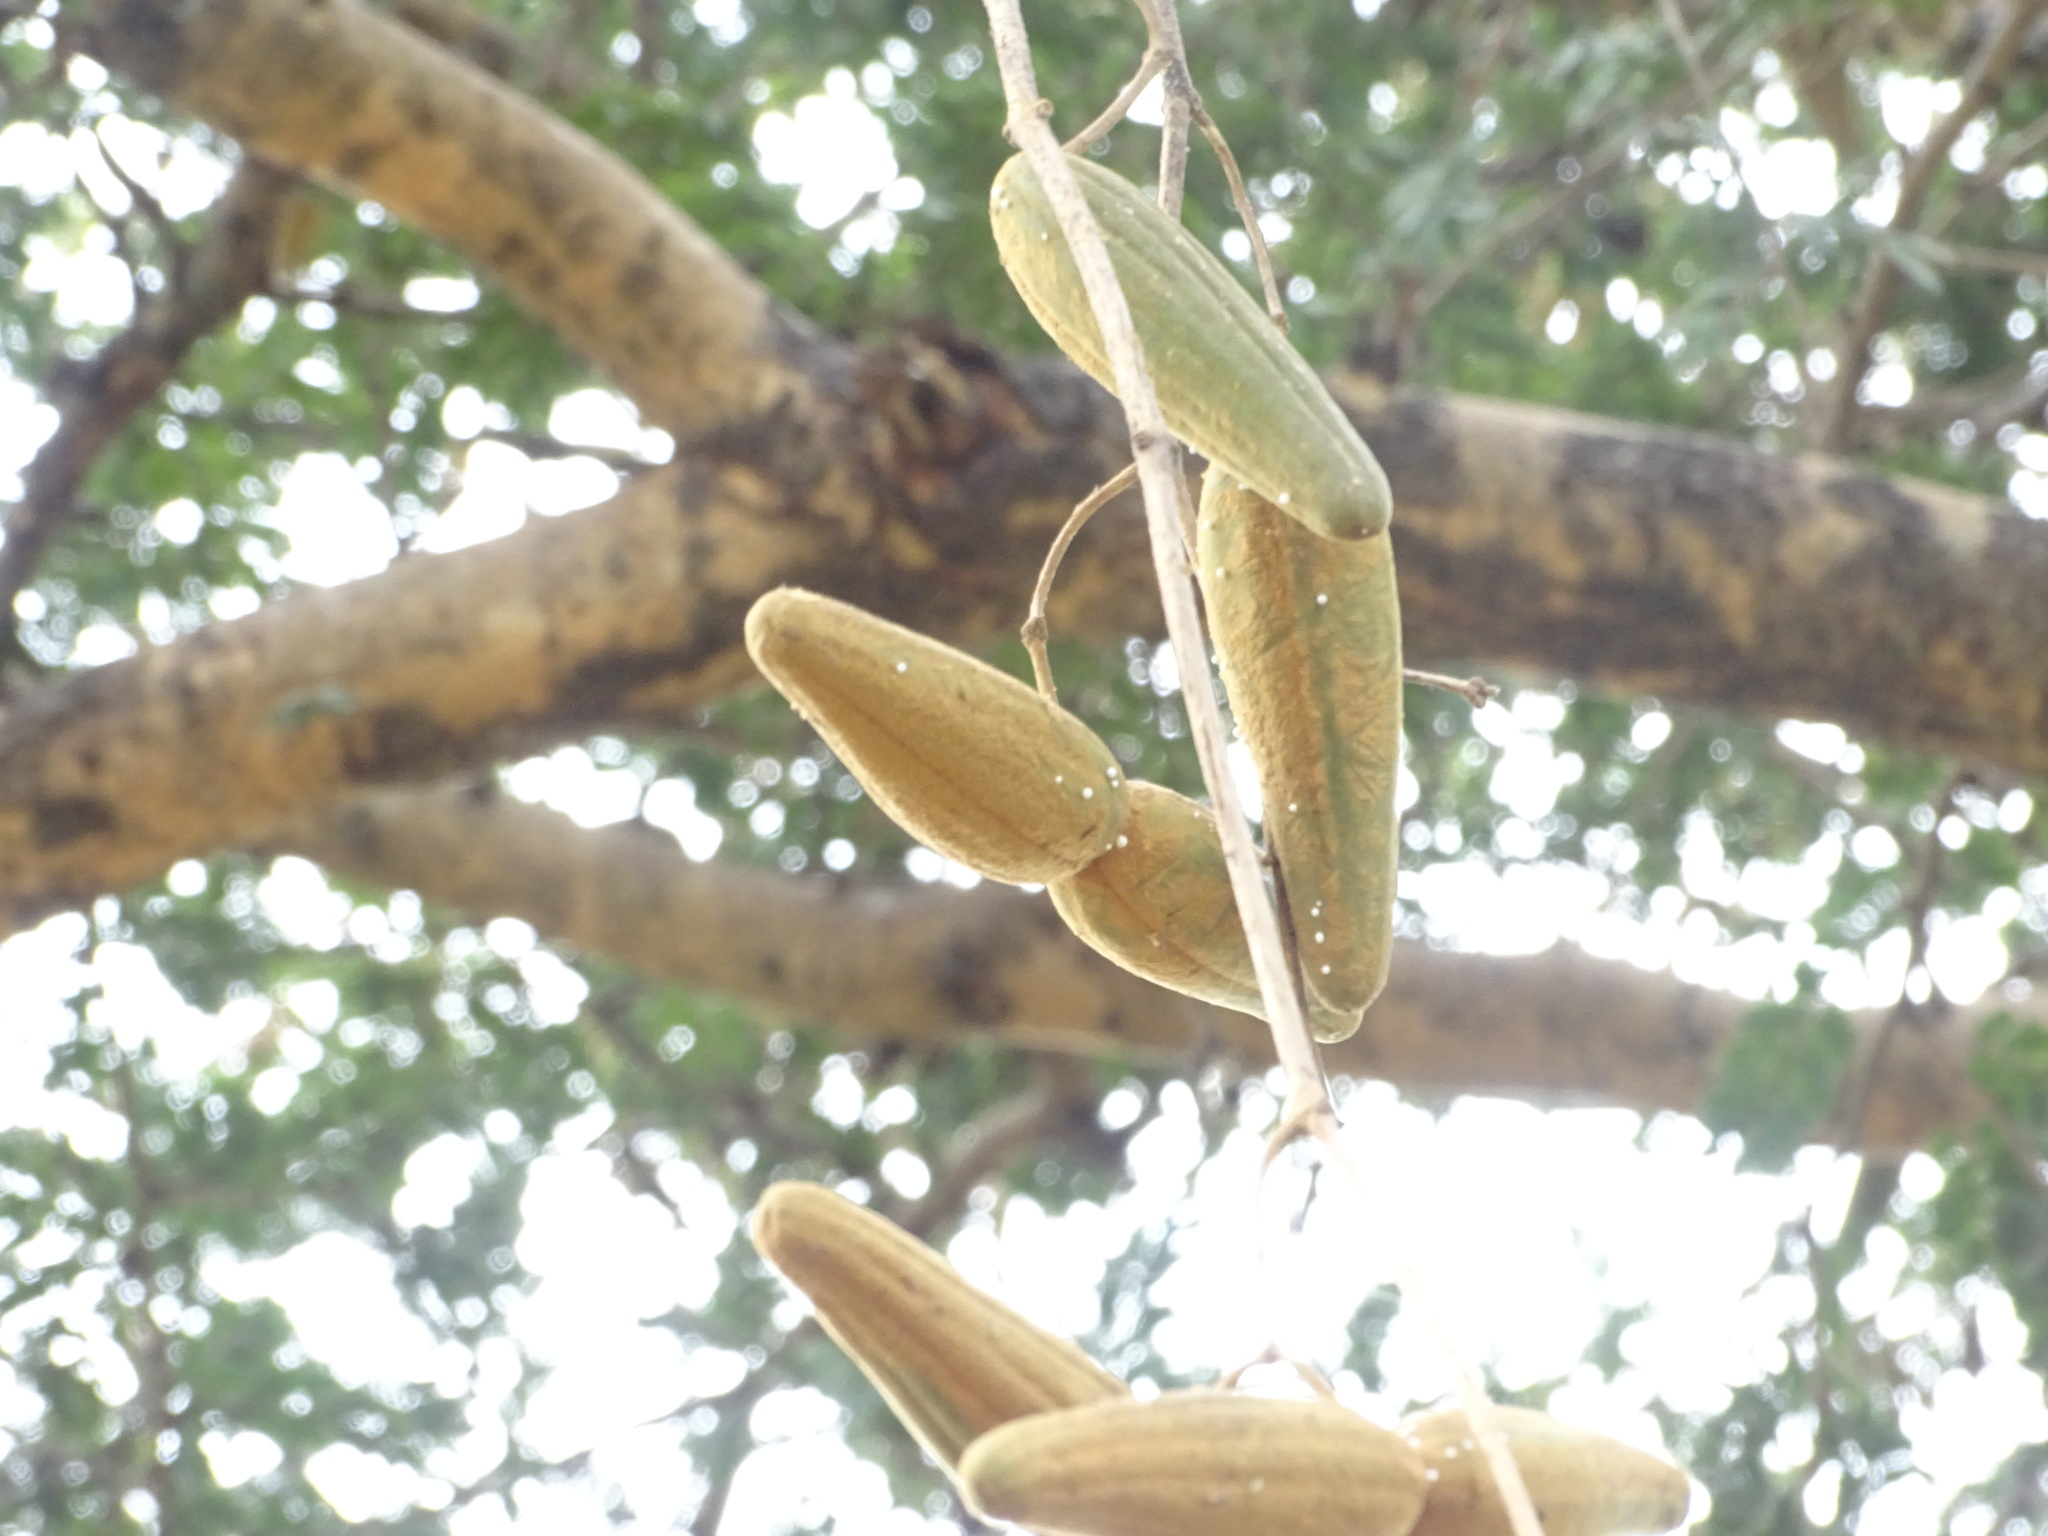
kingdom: Plantae
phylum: Tracheophyta
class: Magnoliopsida
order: Gentianales
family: Apocynaceae
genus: Stephanotis
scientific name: Stephanotis volubilis
